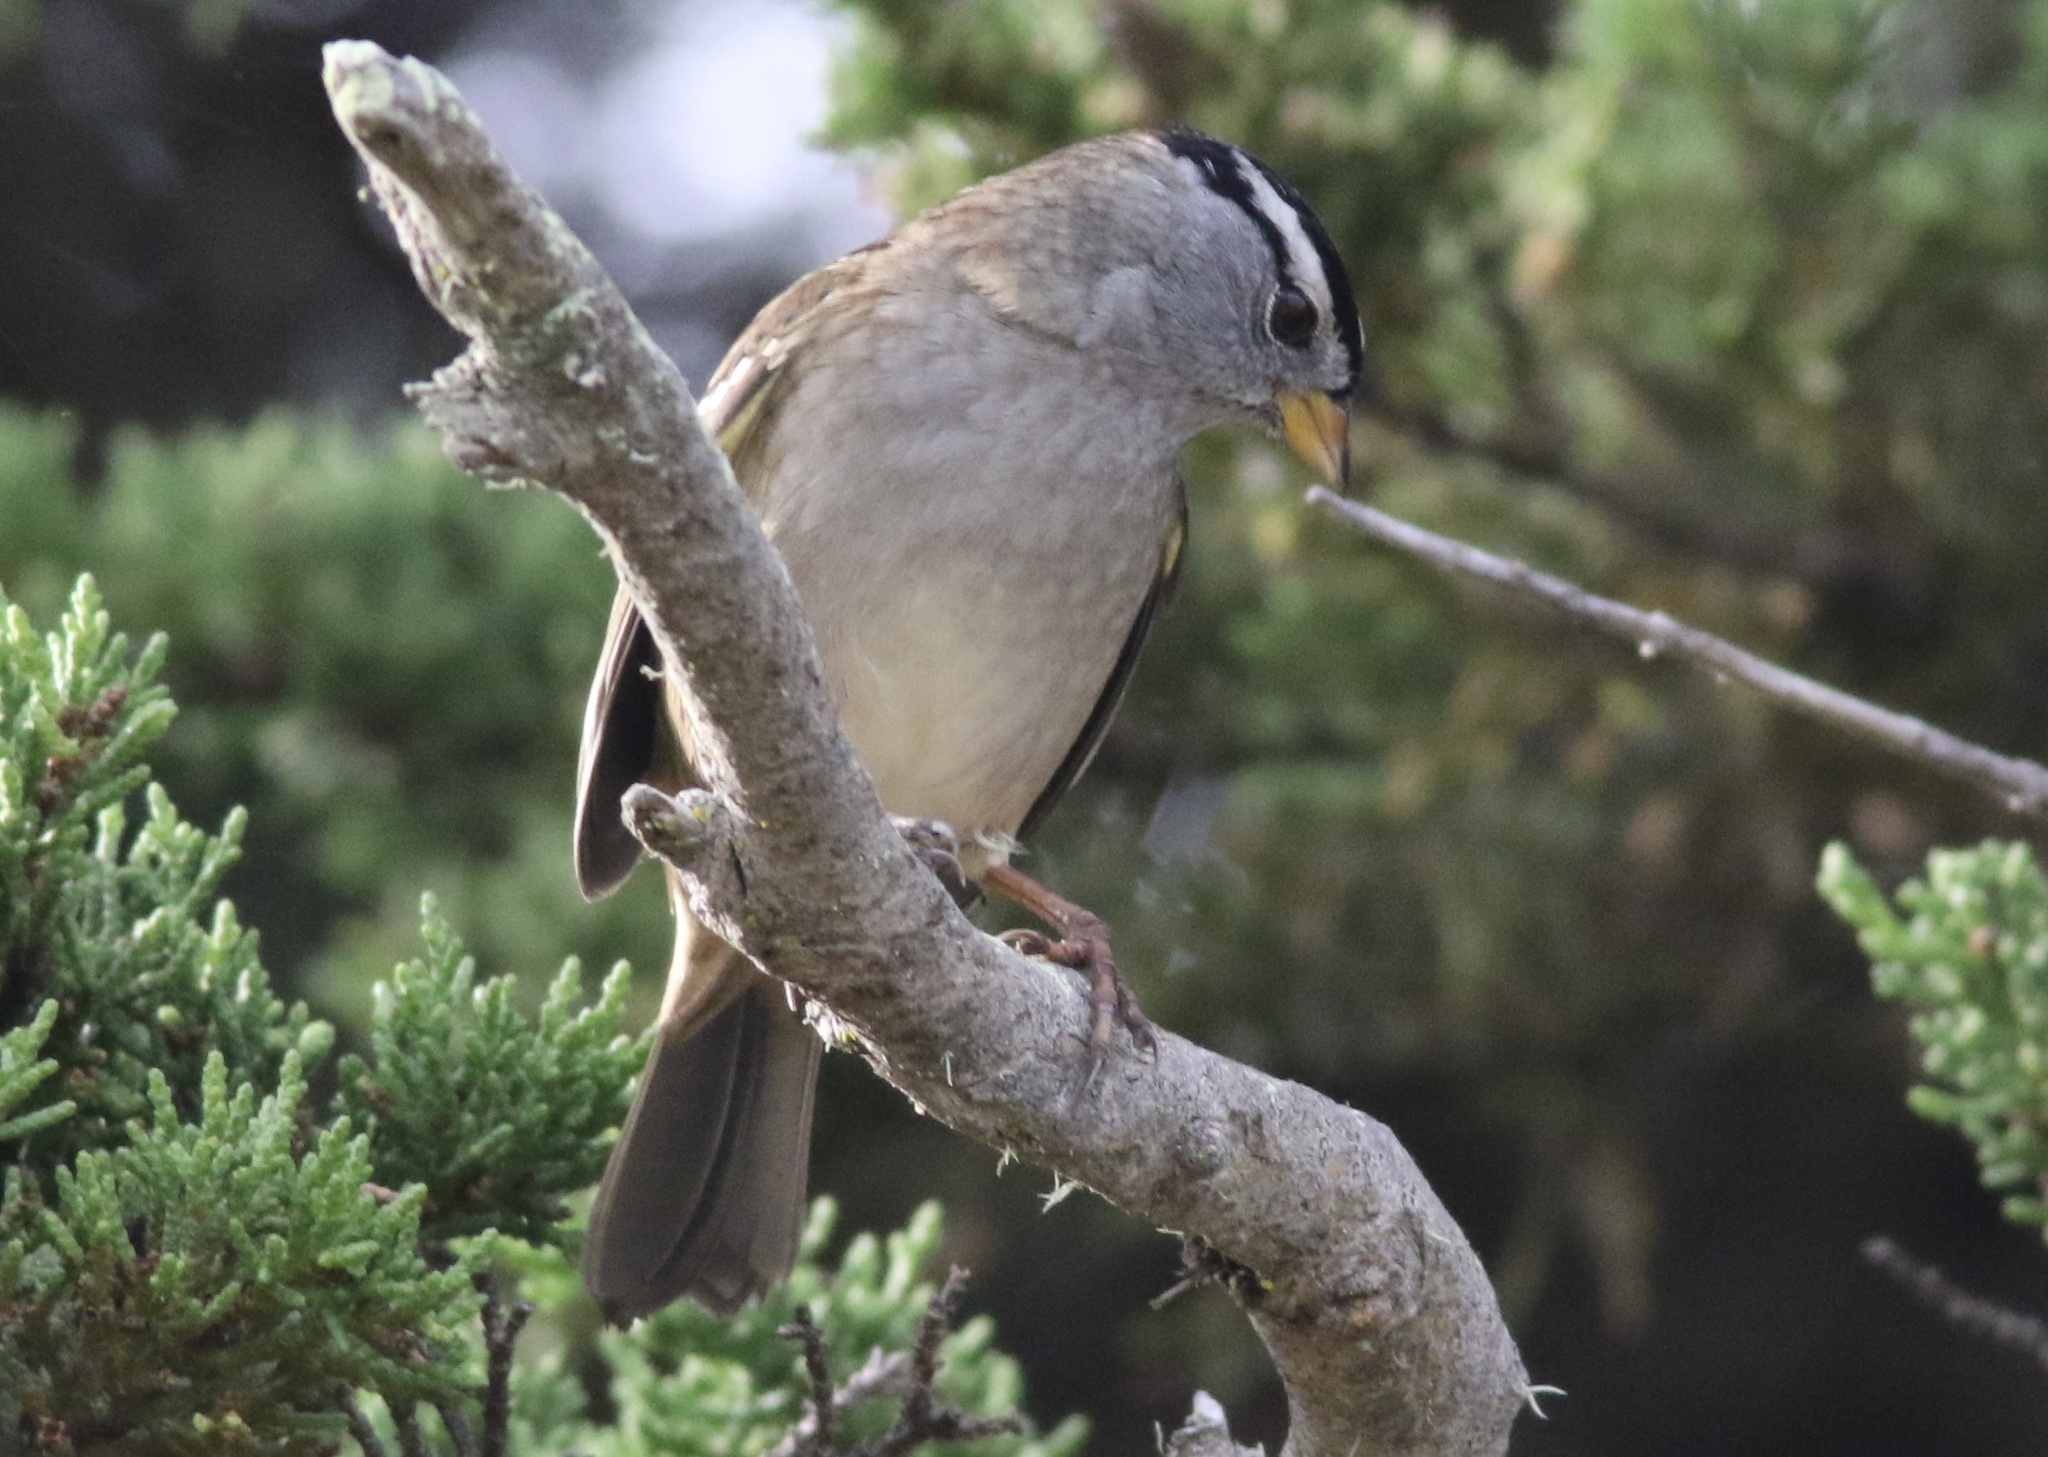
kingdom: Animalia
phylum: Chordata
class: Aves
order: Passeriformes
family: Passerellidae
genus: Zonotrichia
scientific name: Zonotrichia leucophrys
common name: White-crowned sparrow
